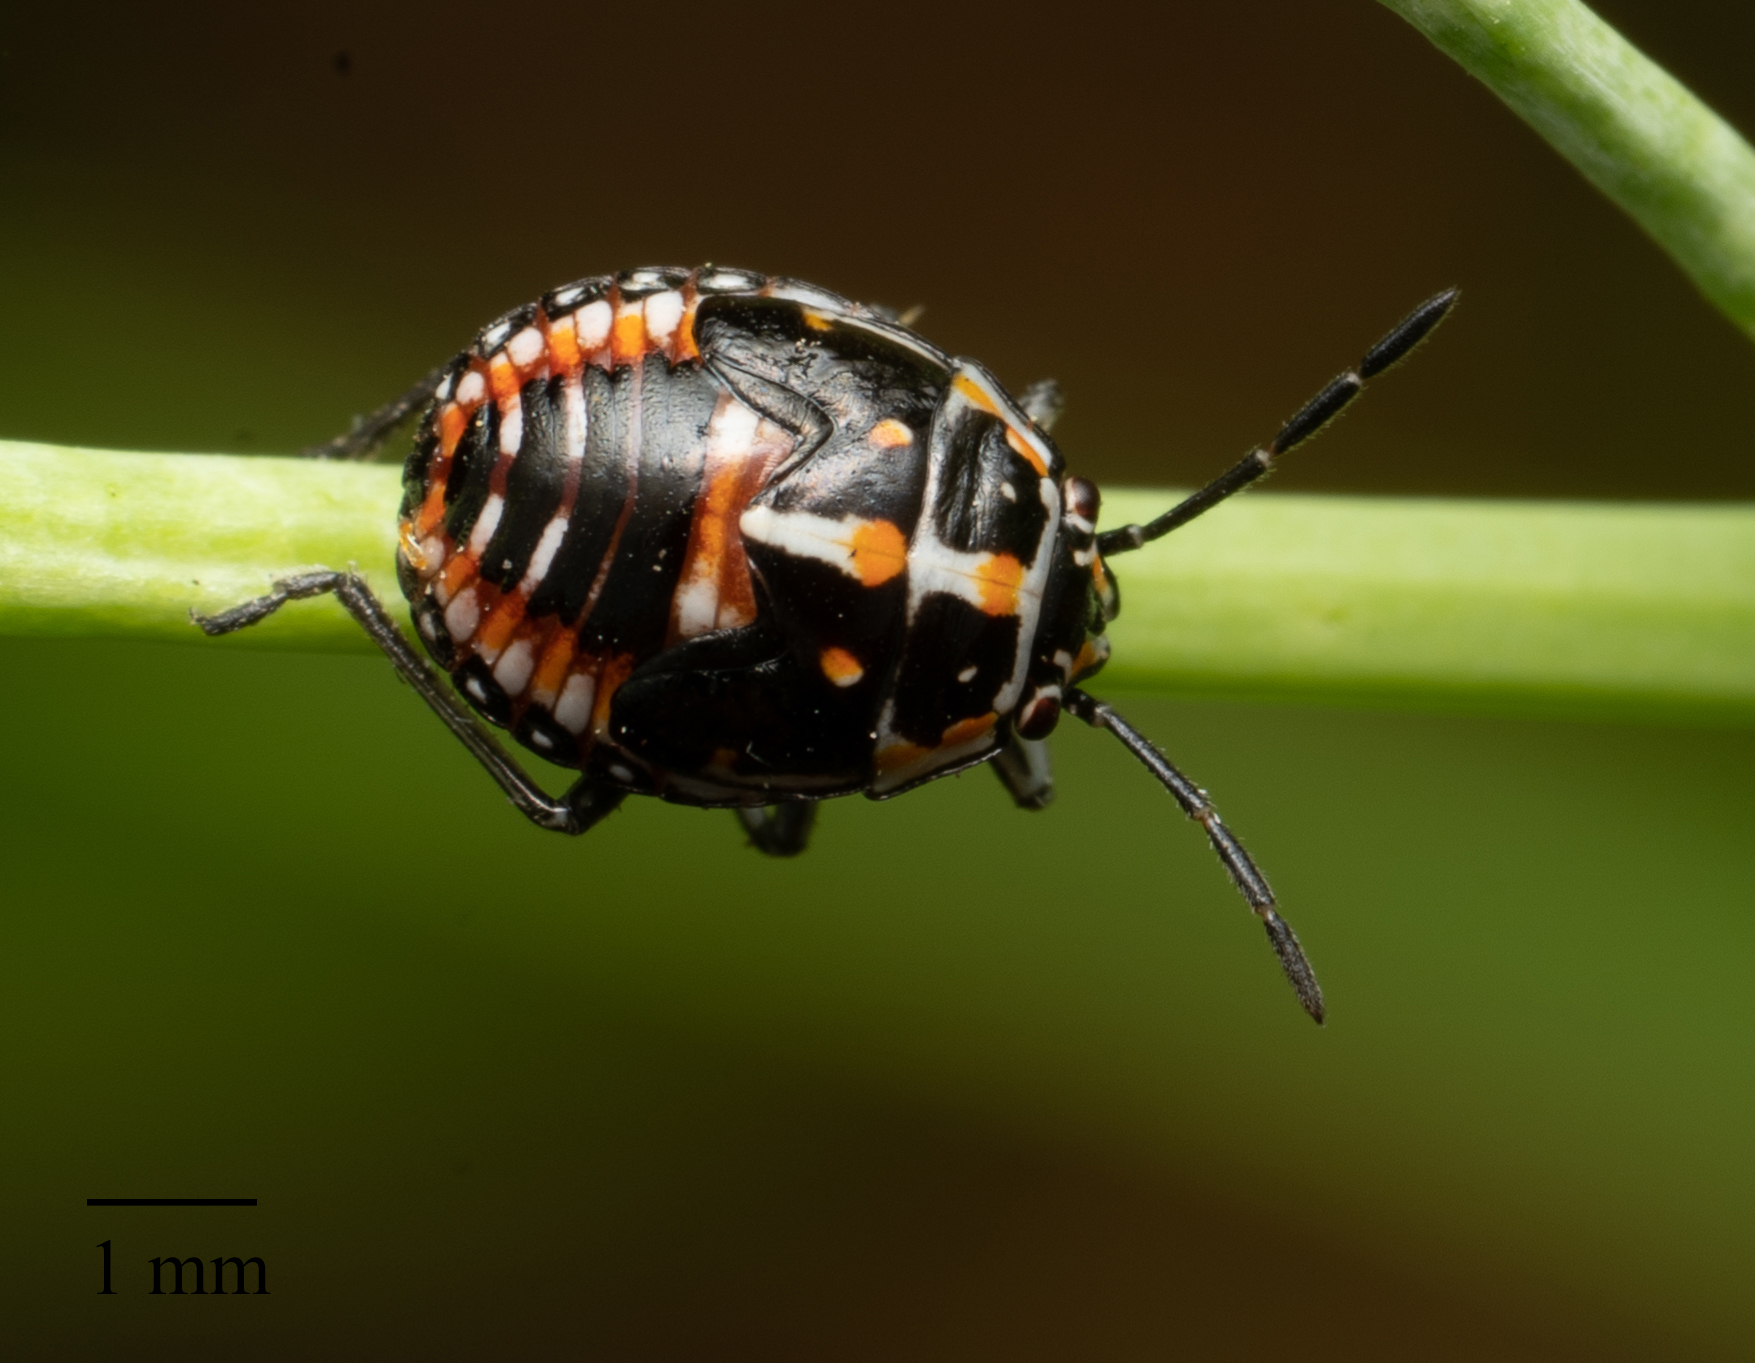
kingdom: Animalia
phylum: Arthropoda
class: Insecta
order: Hemiptera
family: Pentatomidae
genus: Bagrada
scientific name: Bagrada hilaris
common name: Bagrada bug
